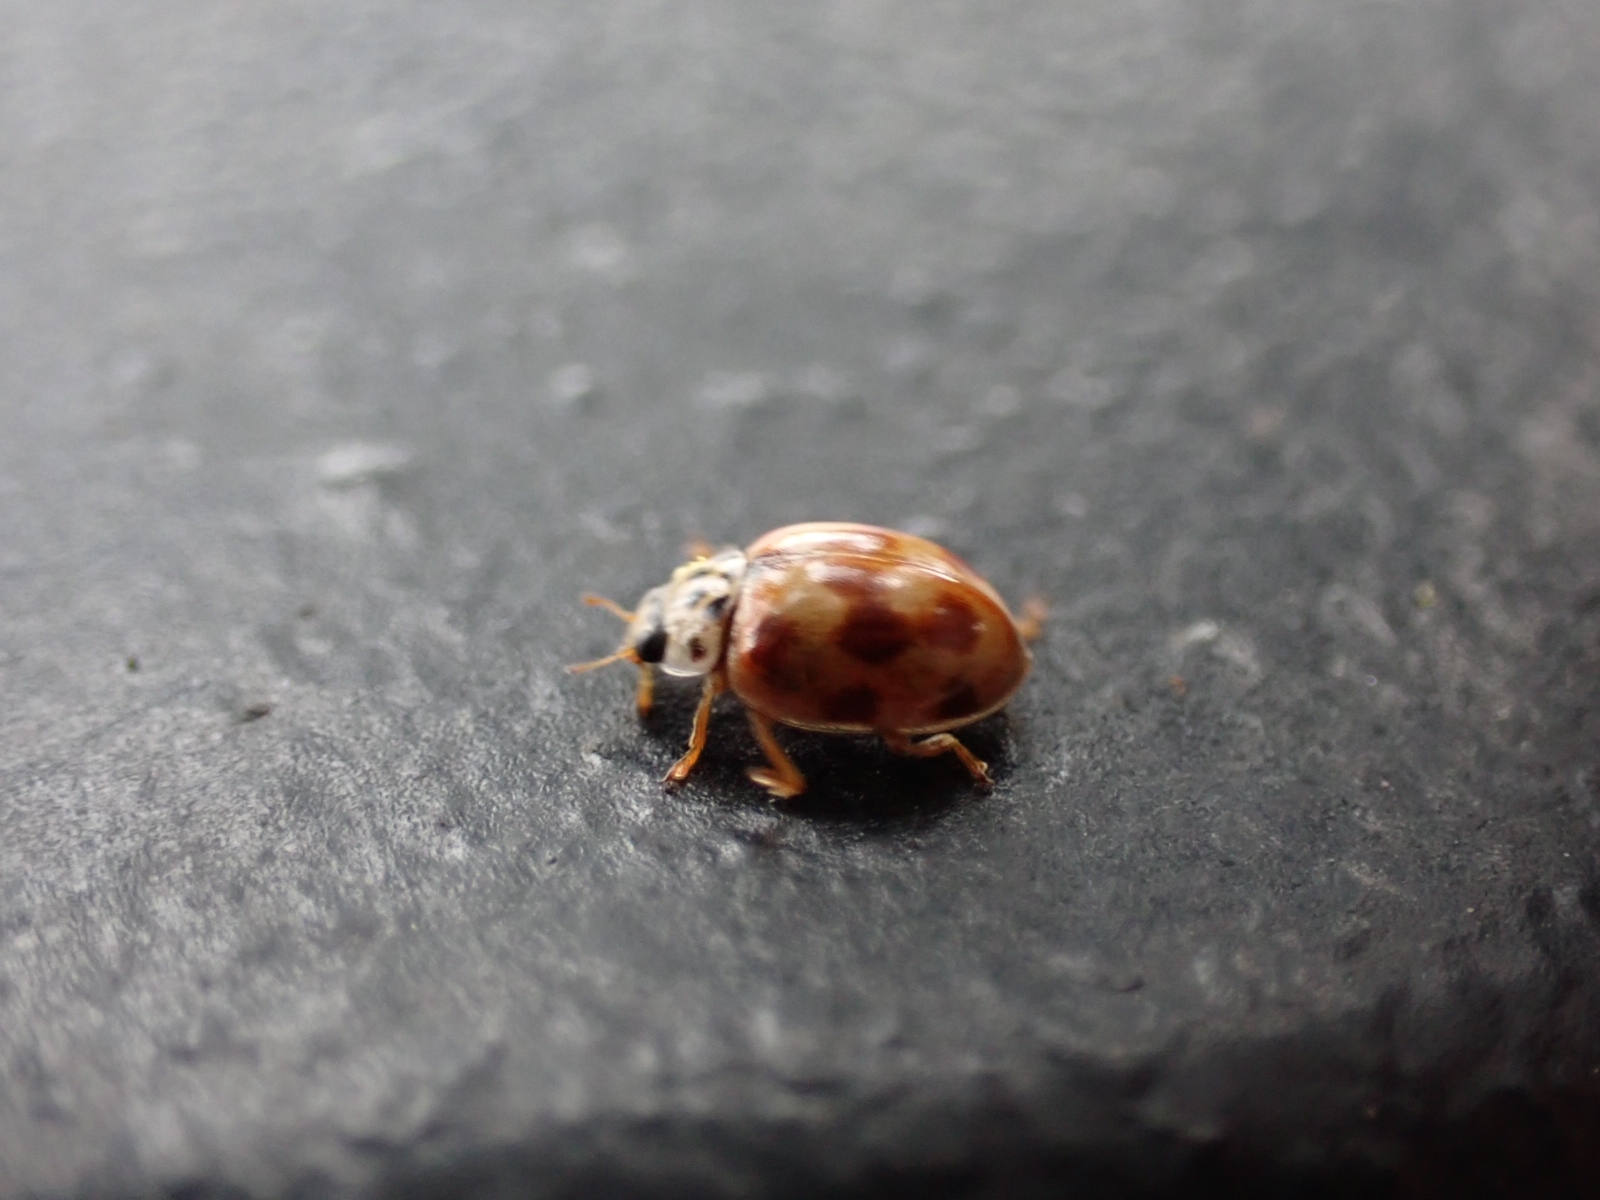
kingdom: Animalia
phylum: Arthropoda
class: Insecta
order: Coleoptera
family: Coccinellidae
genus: Adalia
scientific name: Adalia decempunctata
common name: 10-spot ladybird
